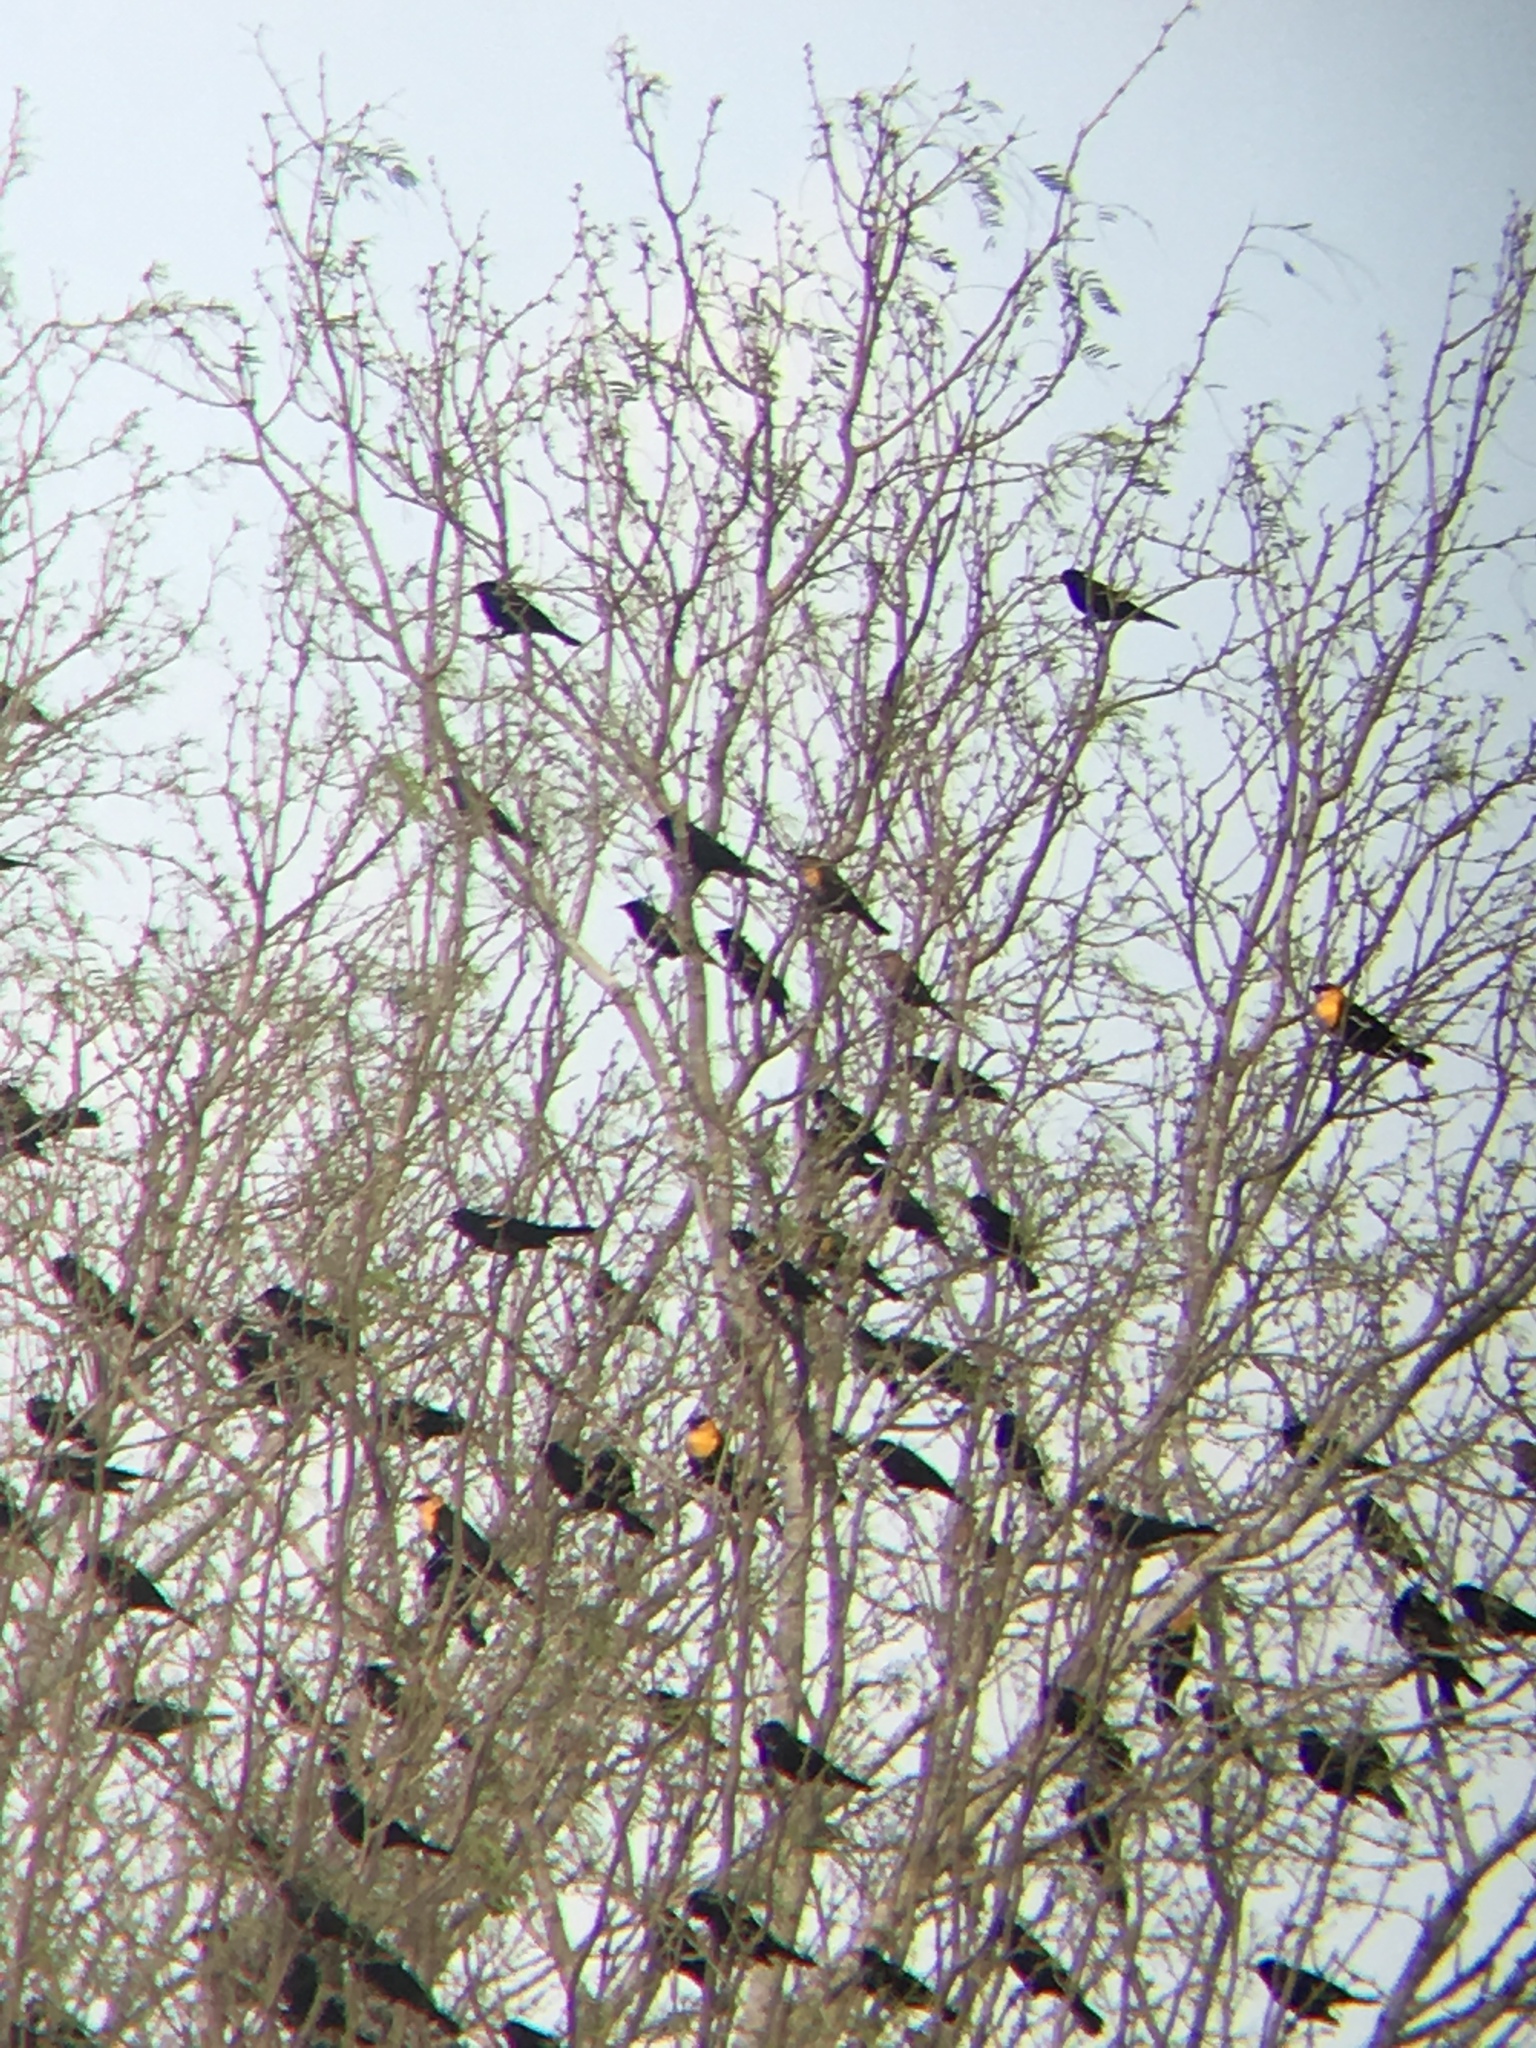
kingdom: Animalia
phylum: Chordata
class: Aves
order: Passeriformes
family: Icteridae
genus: Xanthocephalus
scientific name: Xanthocephalus xanthocephalus
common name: Yellow-headed blackbird
